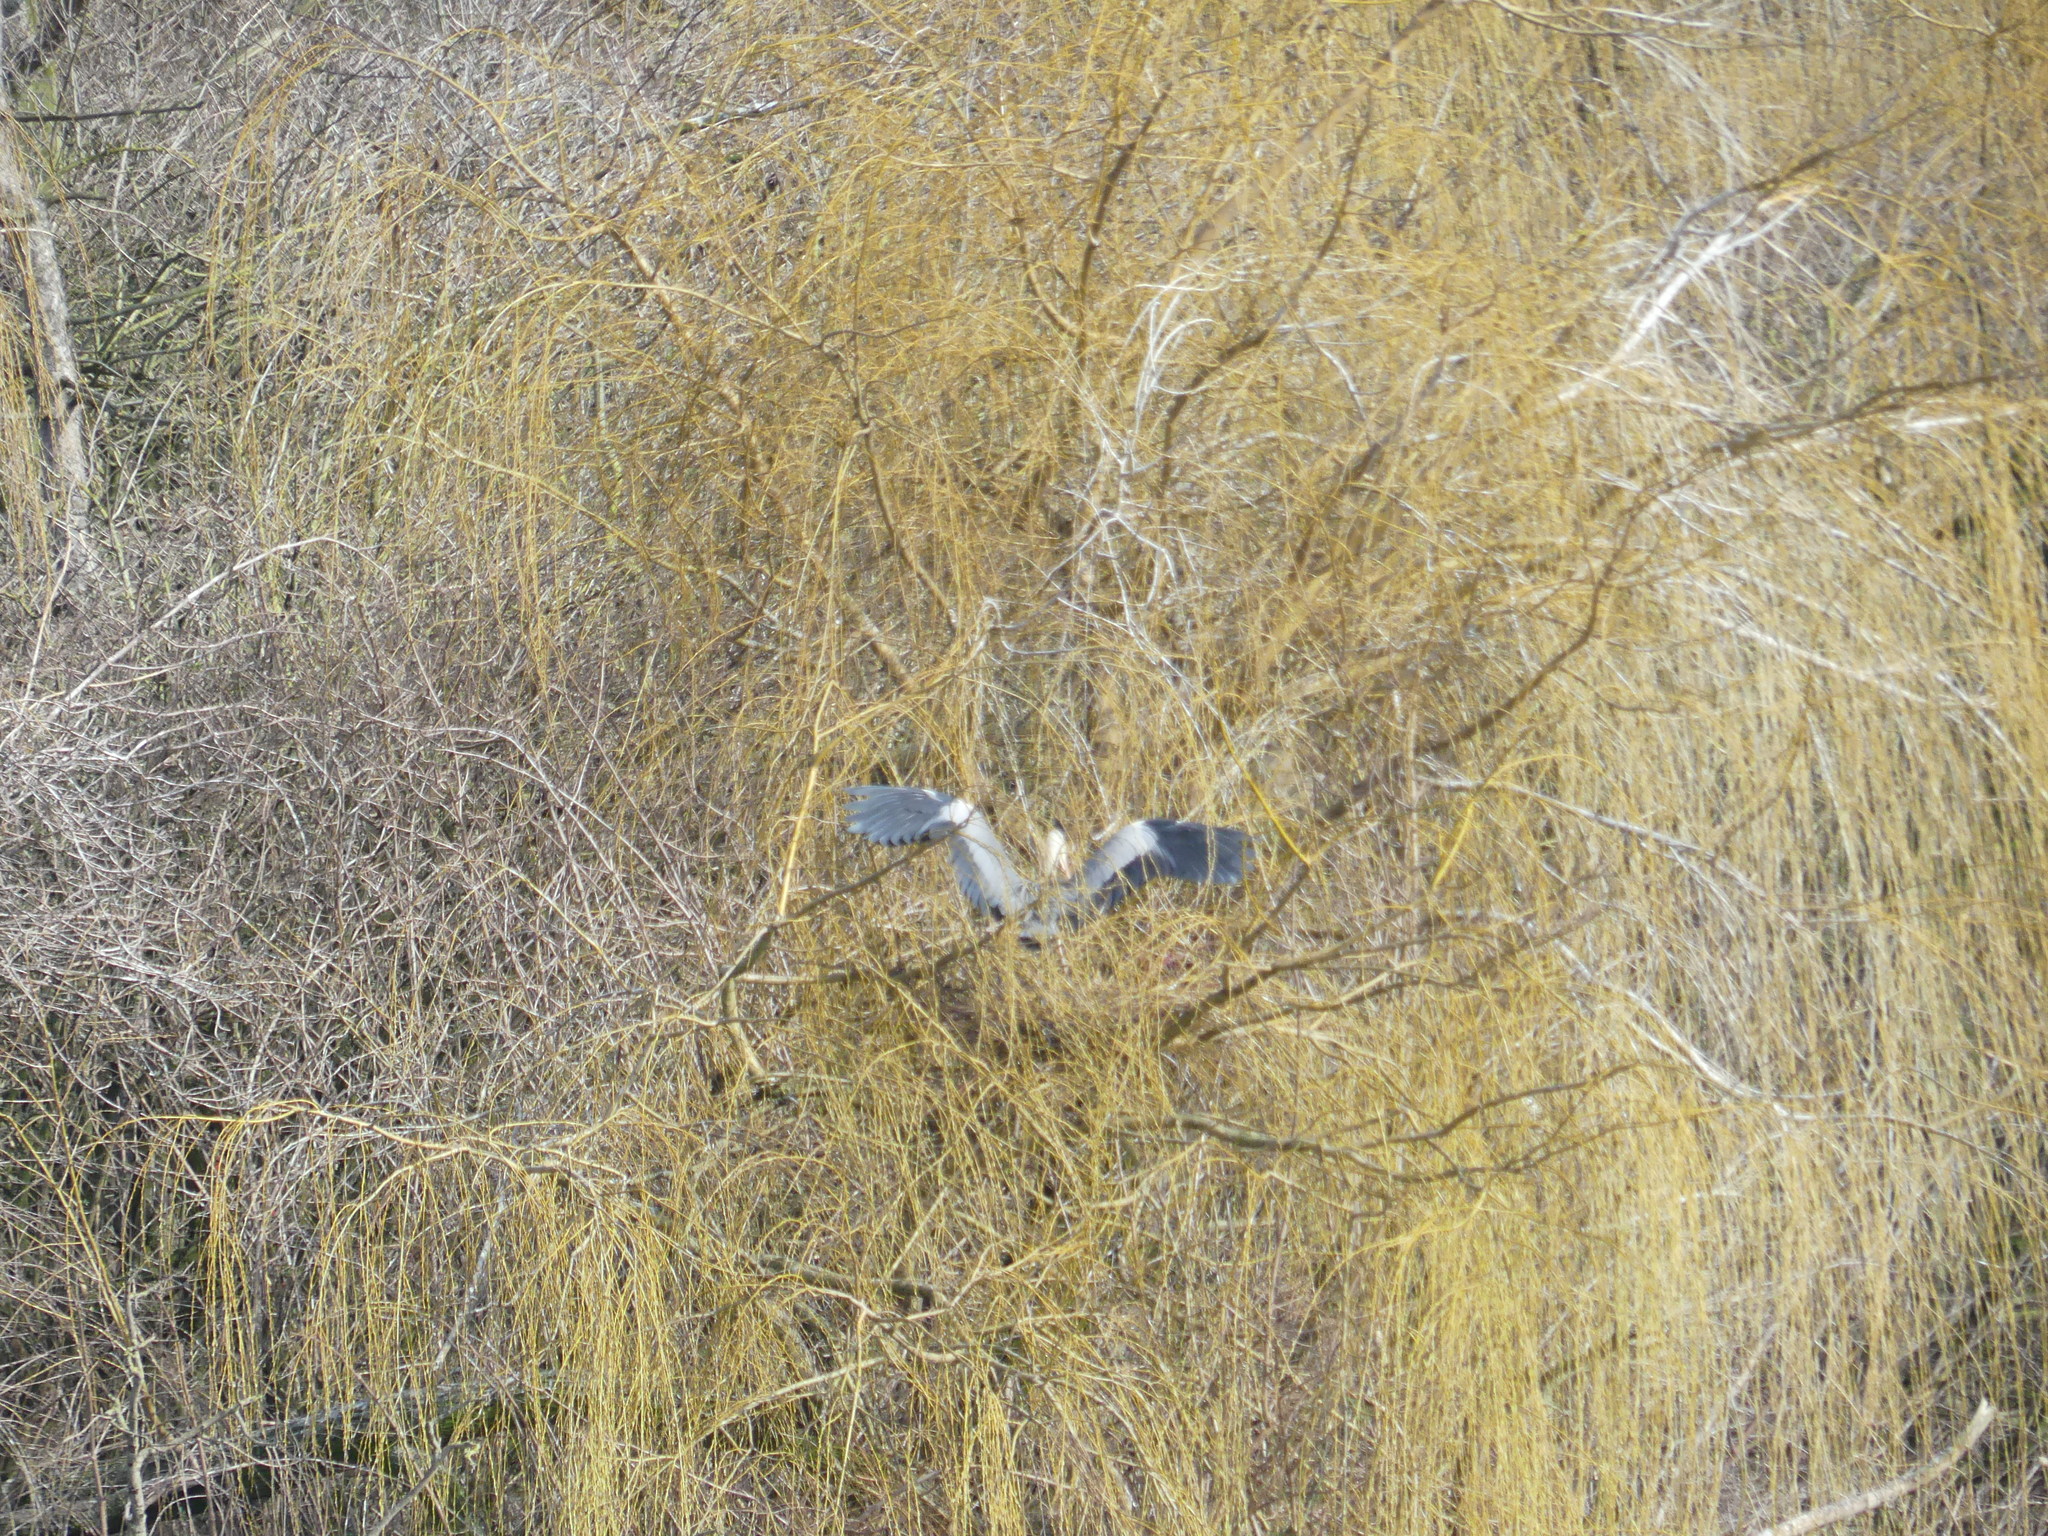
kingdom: Animalia
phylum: Chordata
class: Aves
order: Pelecaniformes
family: Ardeidae
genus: Ardea
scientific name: Ardea cinerea
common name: Grey heron
